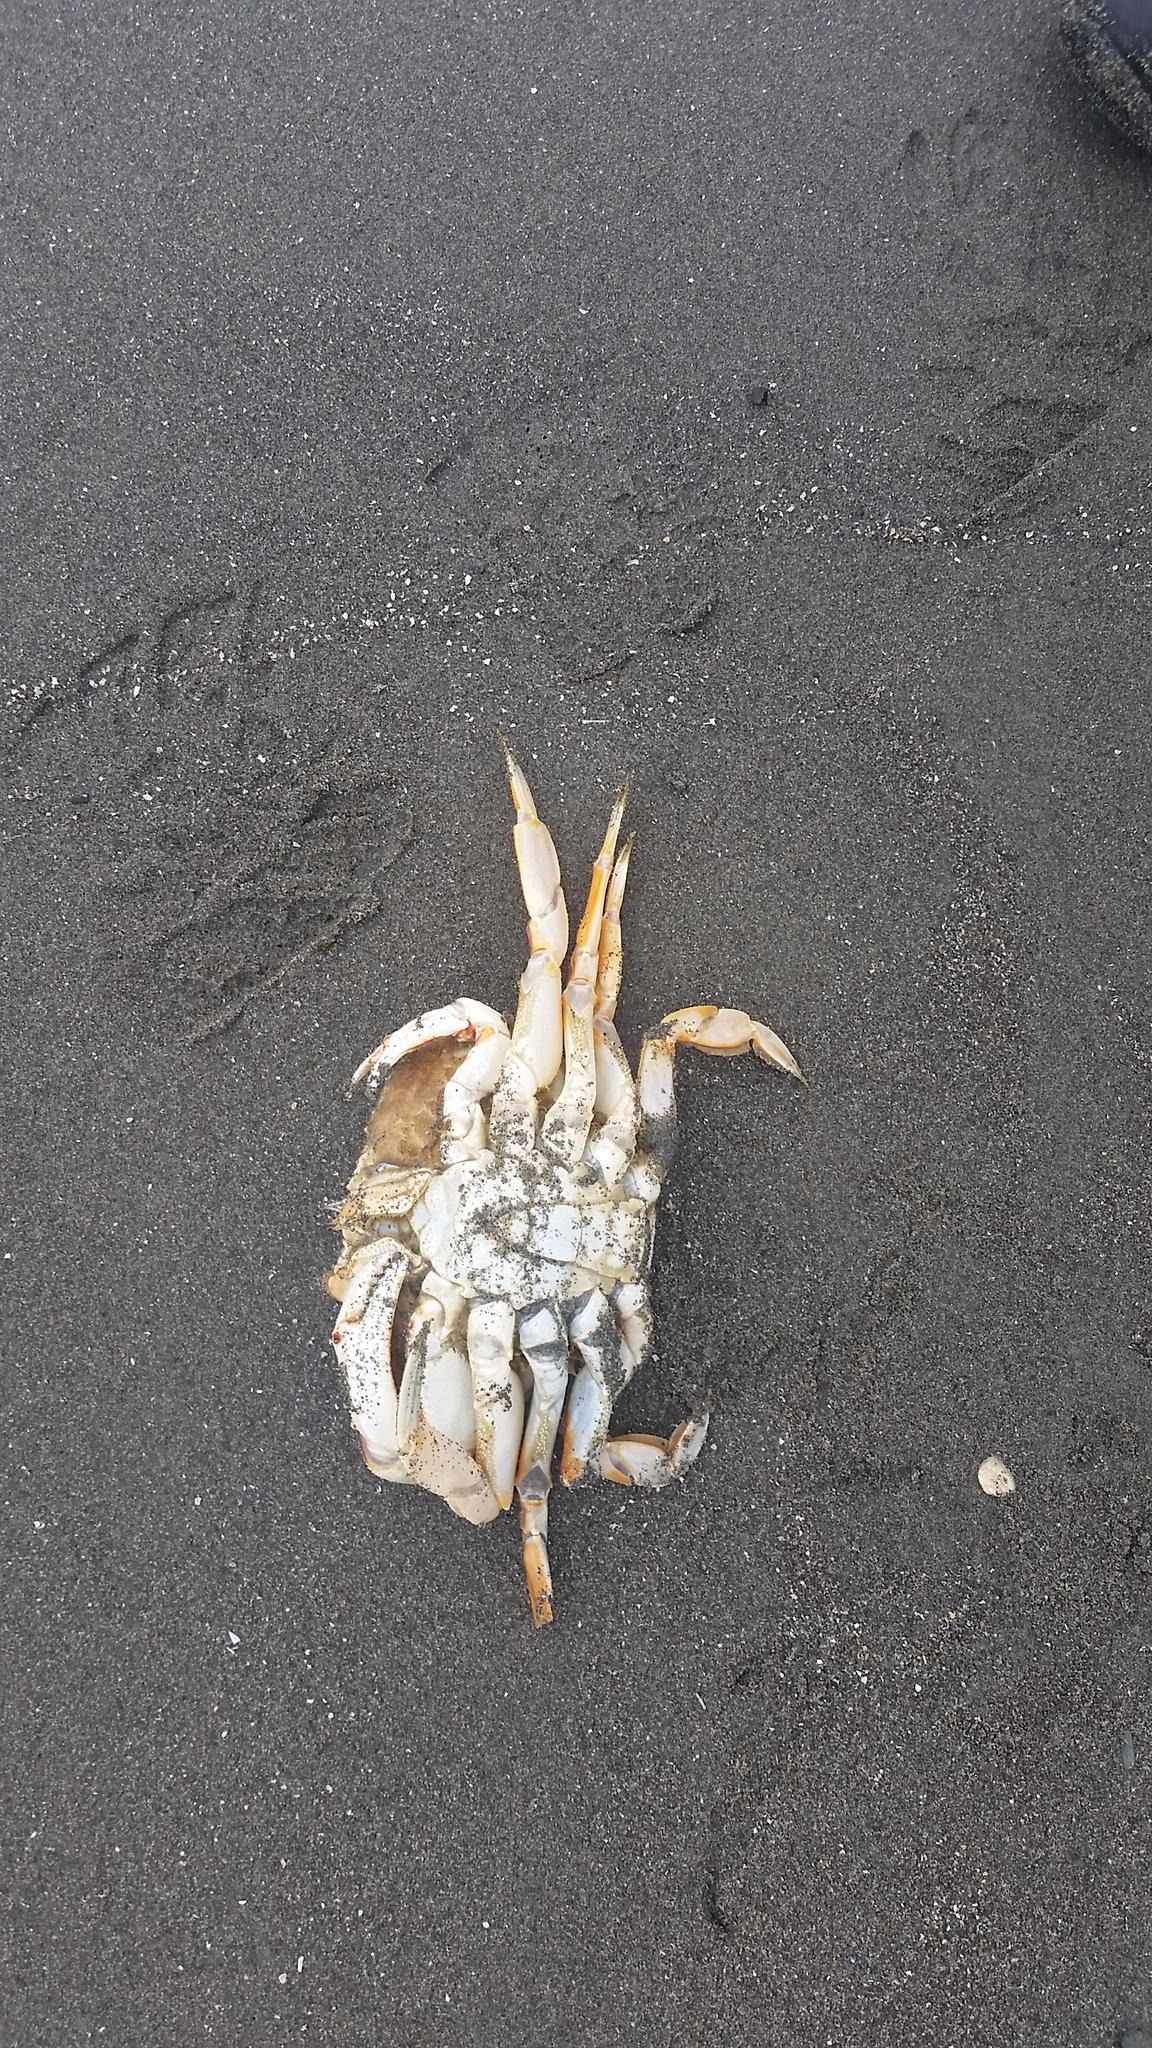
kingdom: Animalia
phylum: Arthropoda
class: Malacostraca
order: Decapoda
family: Cancridae
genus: Metacarcinus
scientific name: Metacarcinus magister
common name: Californian crab
